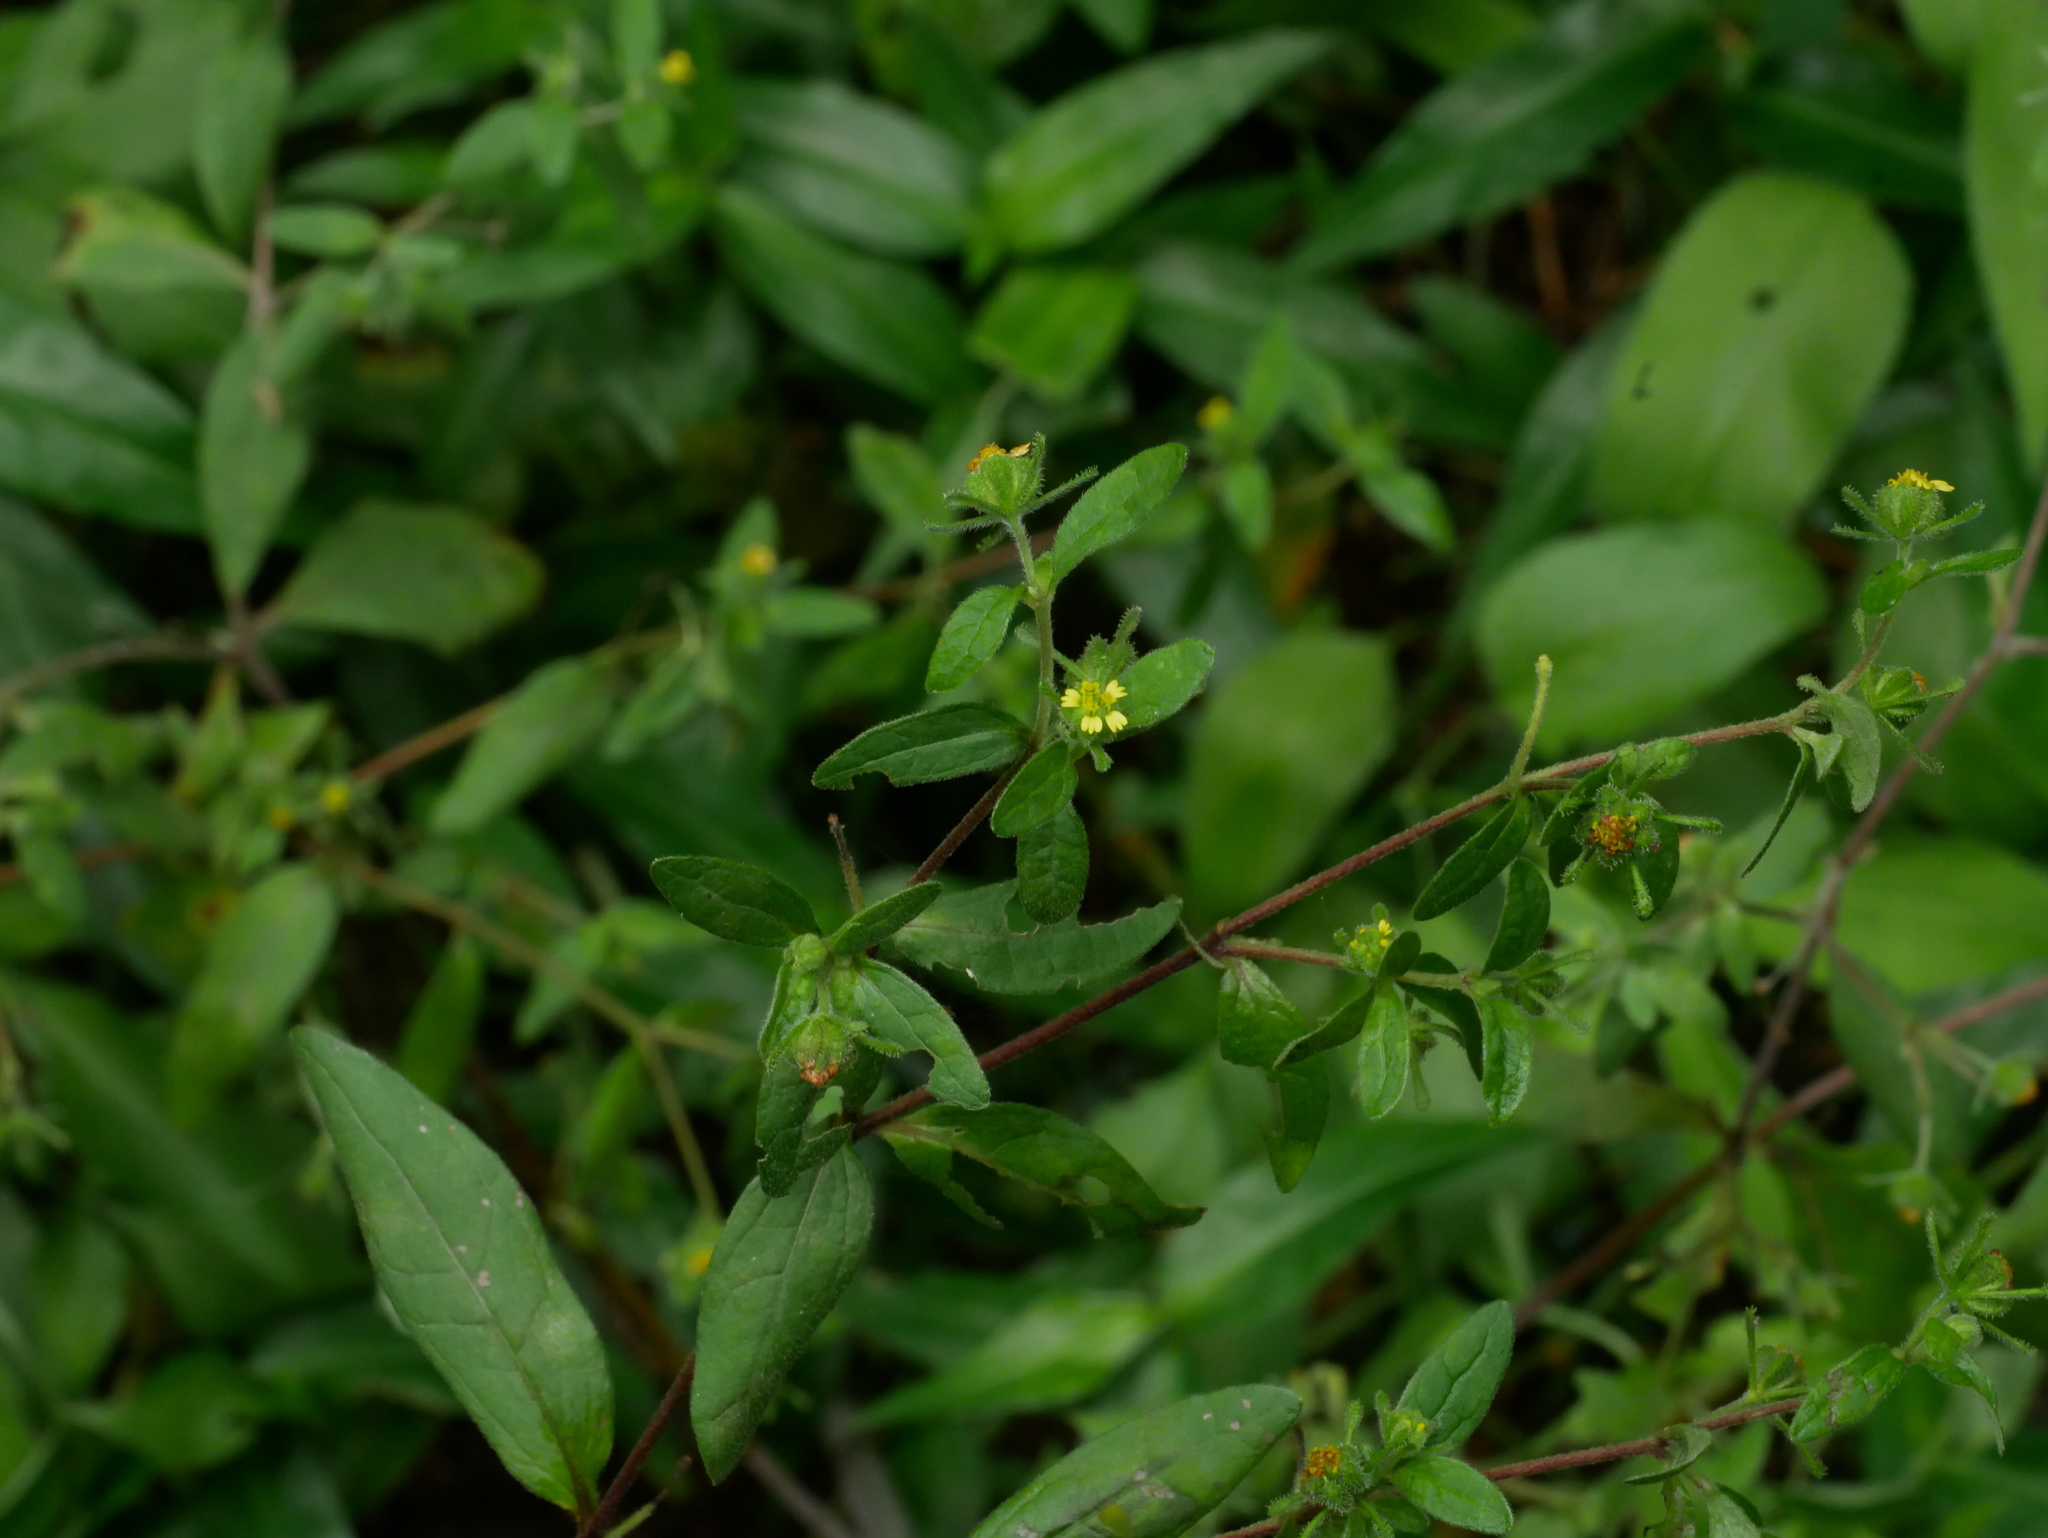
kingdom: Plantae
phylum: Tracheophyta
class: Magnoliopsida
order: Asterales
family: Asteraceae
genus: Sigesbeckia
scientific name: Sigesbeckia orientalis
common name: Eastern st paul's-wort
